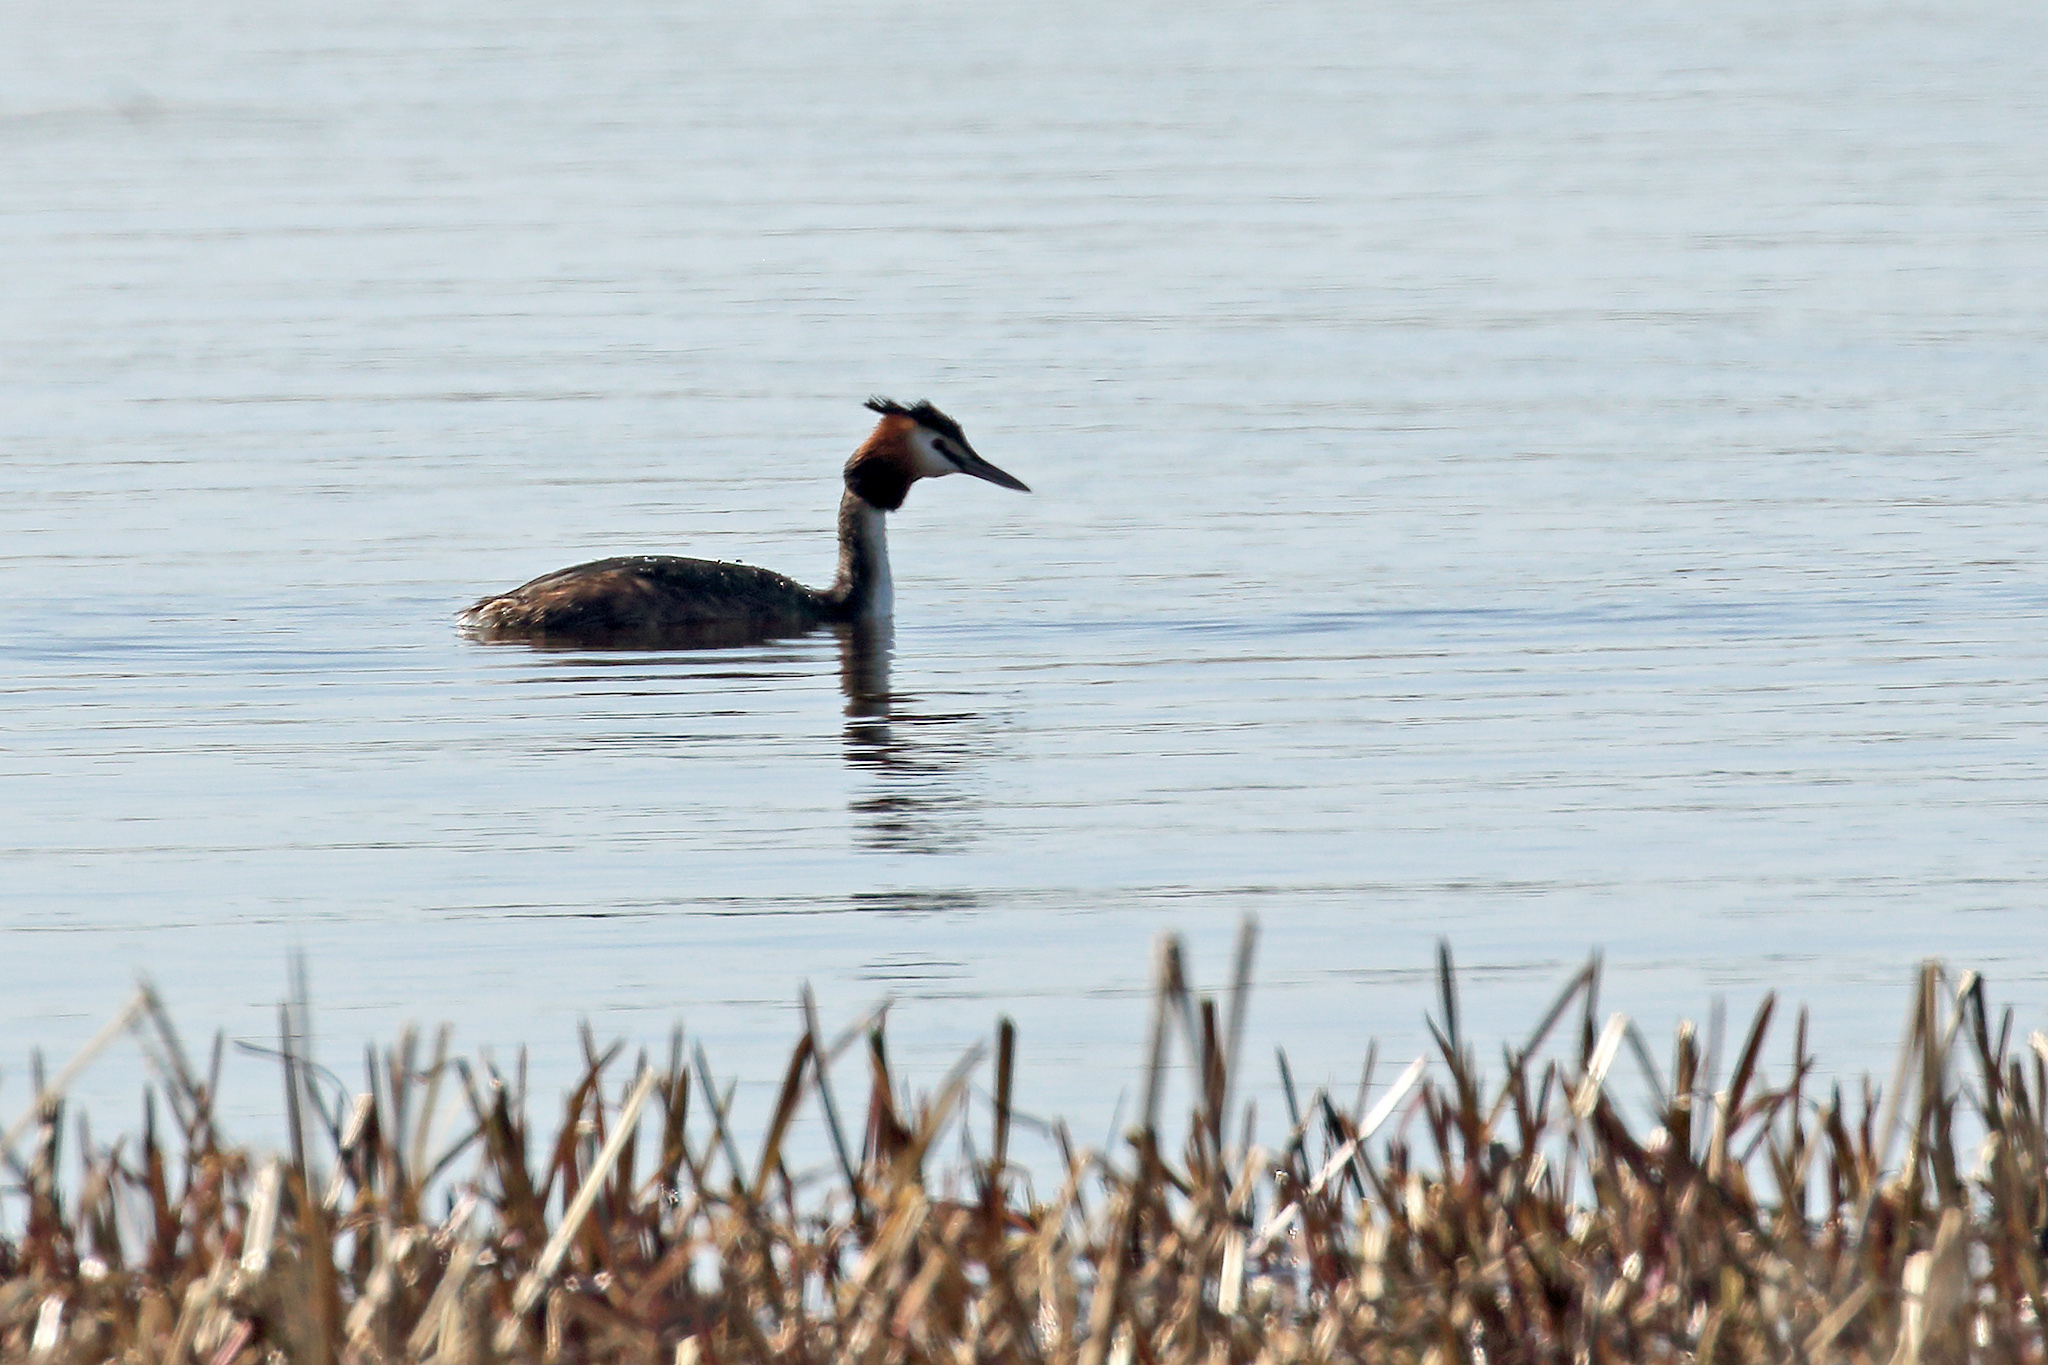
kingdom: Animalia
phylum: Chordata
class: Aves
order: Podicipediformes
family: Podicipedidae
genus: Podiceps
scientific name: Podiceps cristatus
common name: Great crested grebe
